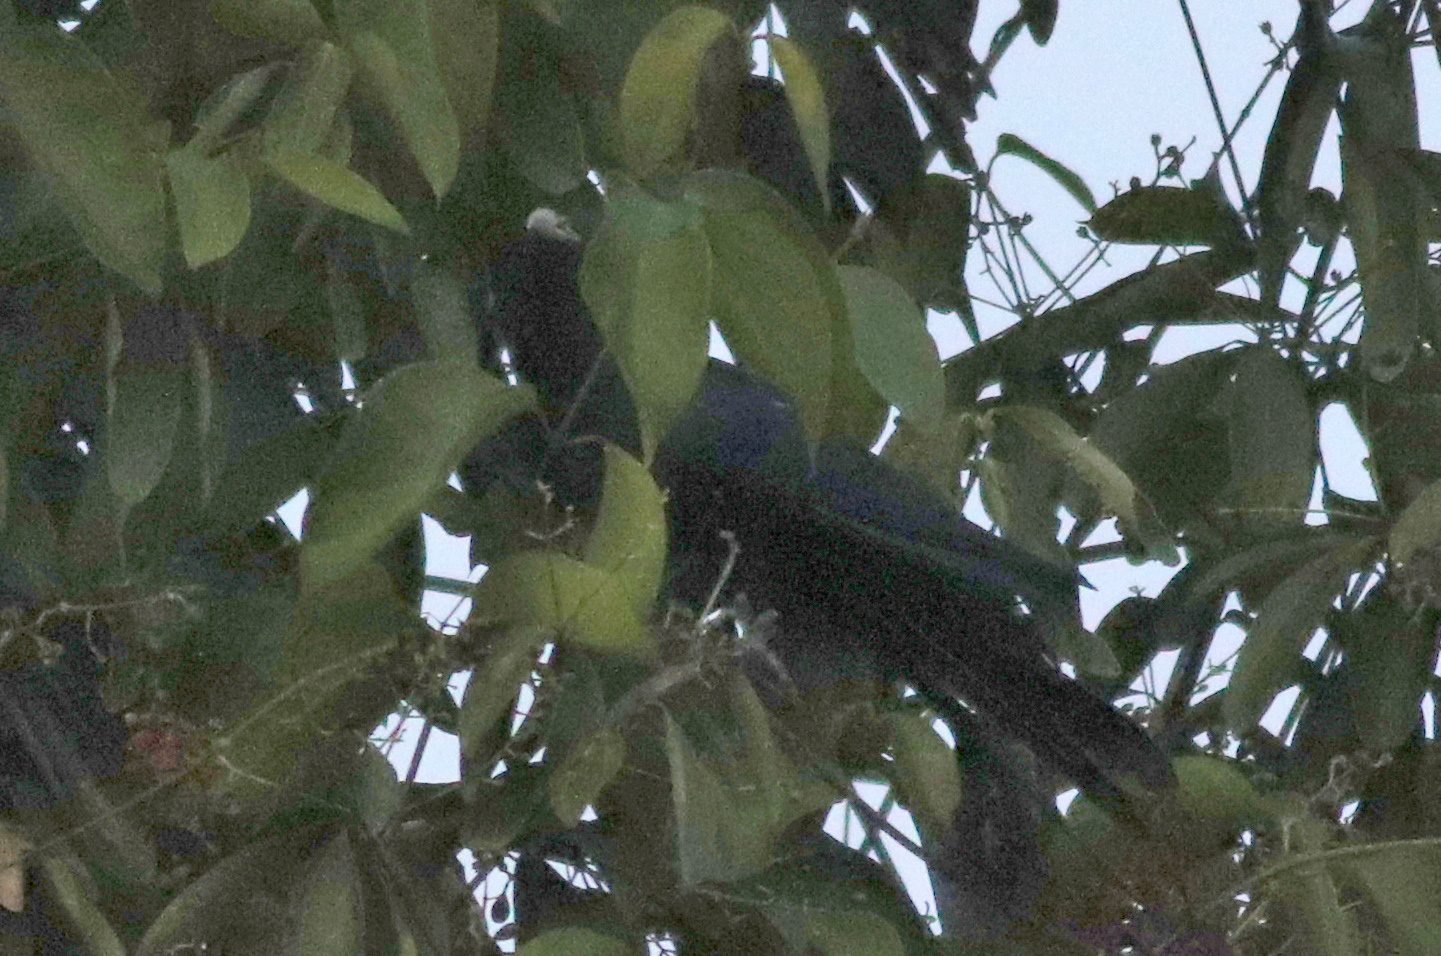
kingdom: Animalia
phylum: Chordata
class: Aves
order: Cuculiformes
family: Cuculidae
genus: Eudynamys
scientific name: Eudynamys scolopaceus
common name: Asian koel
